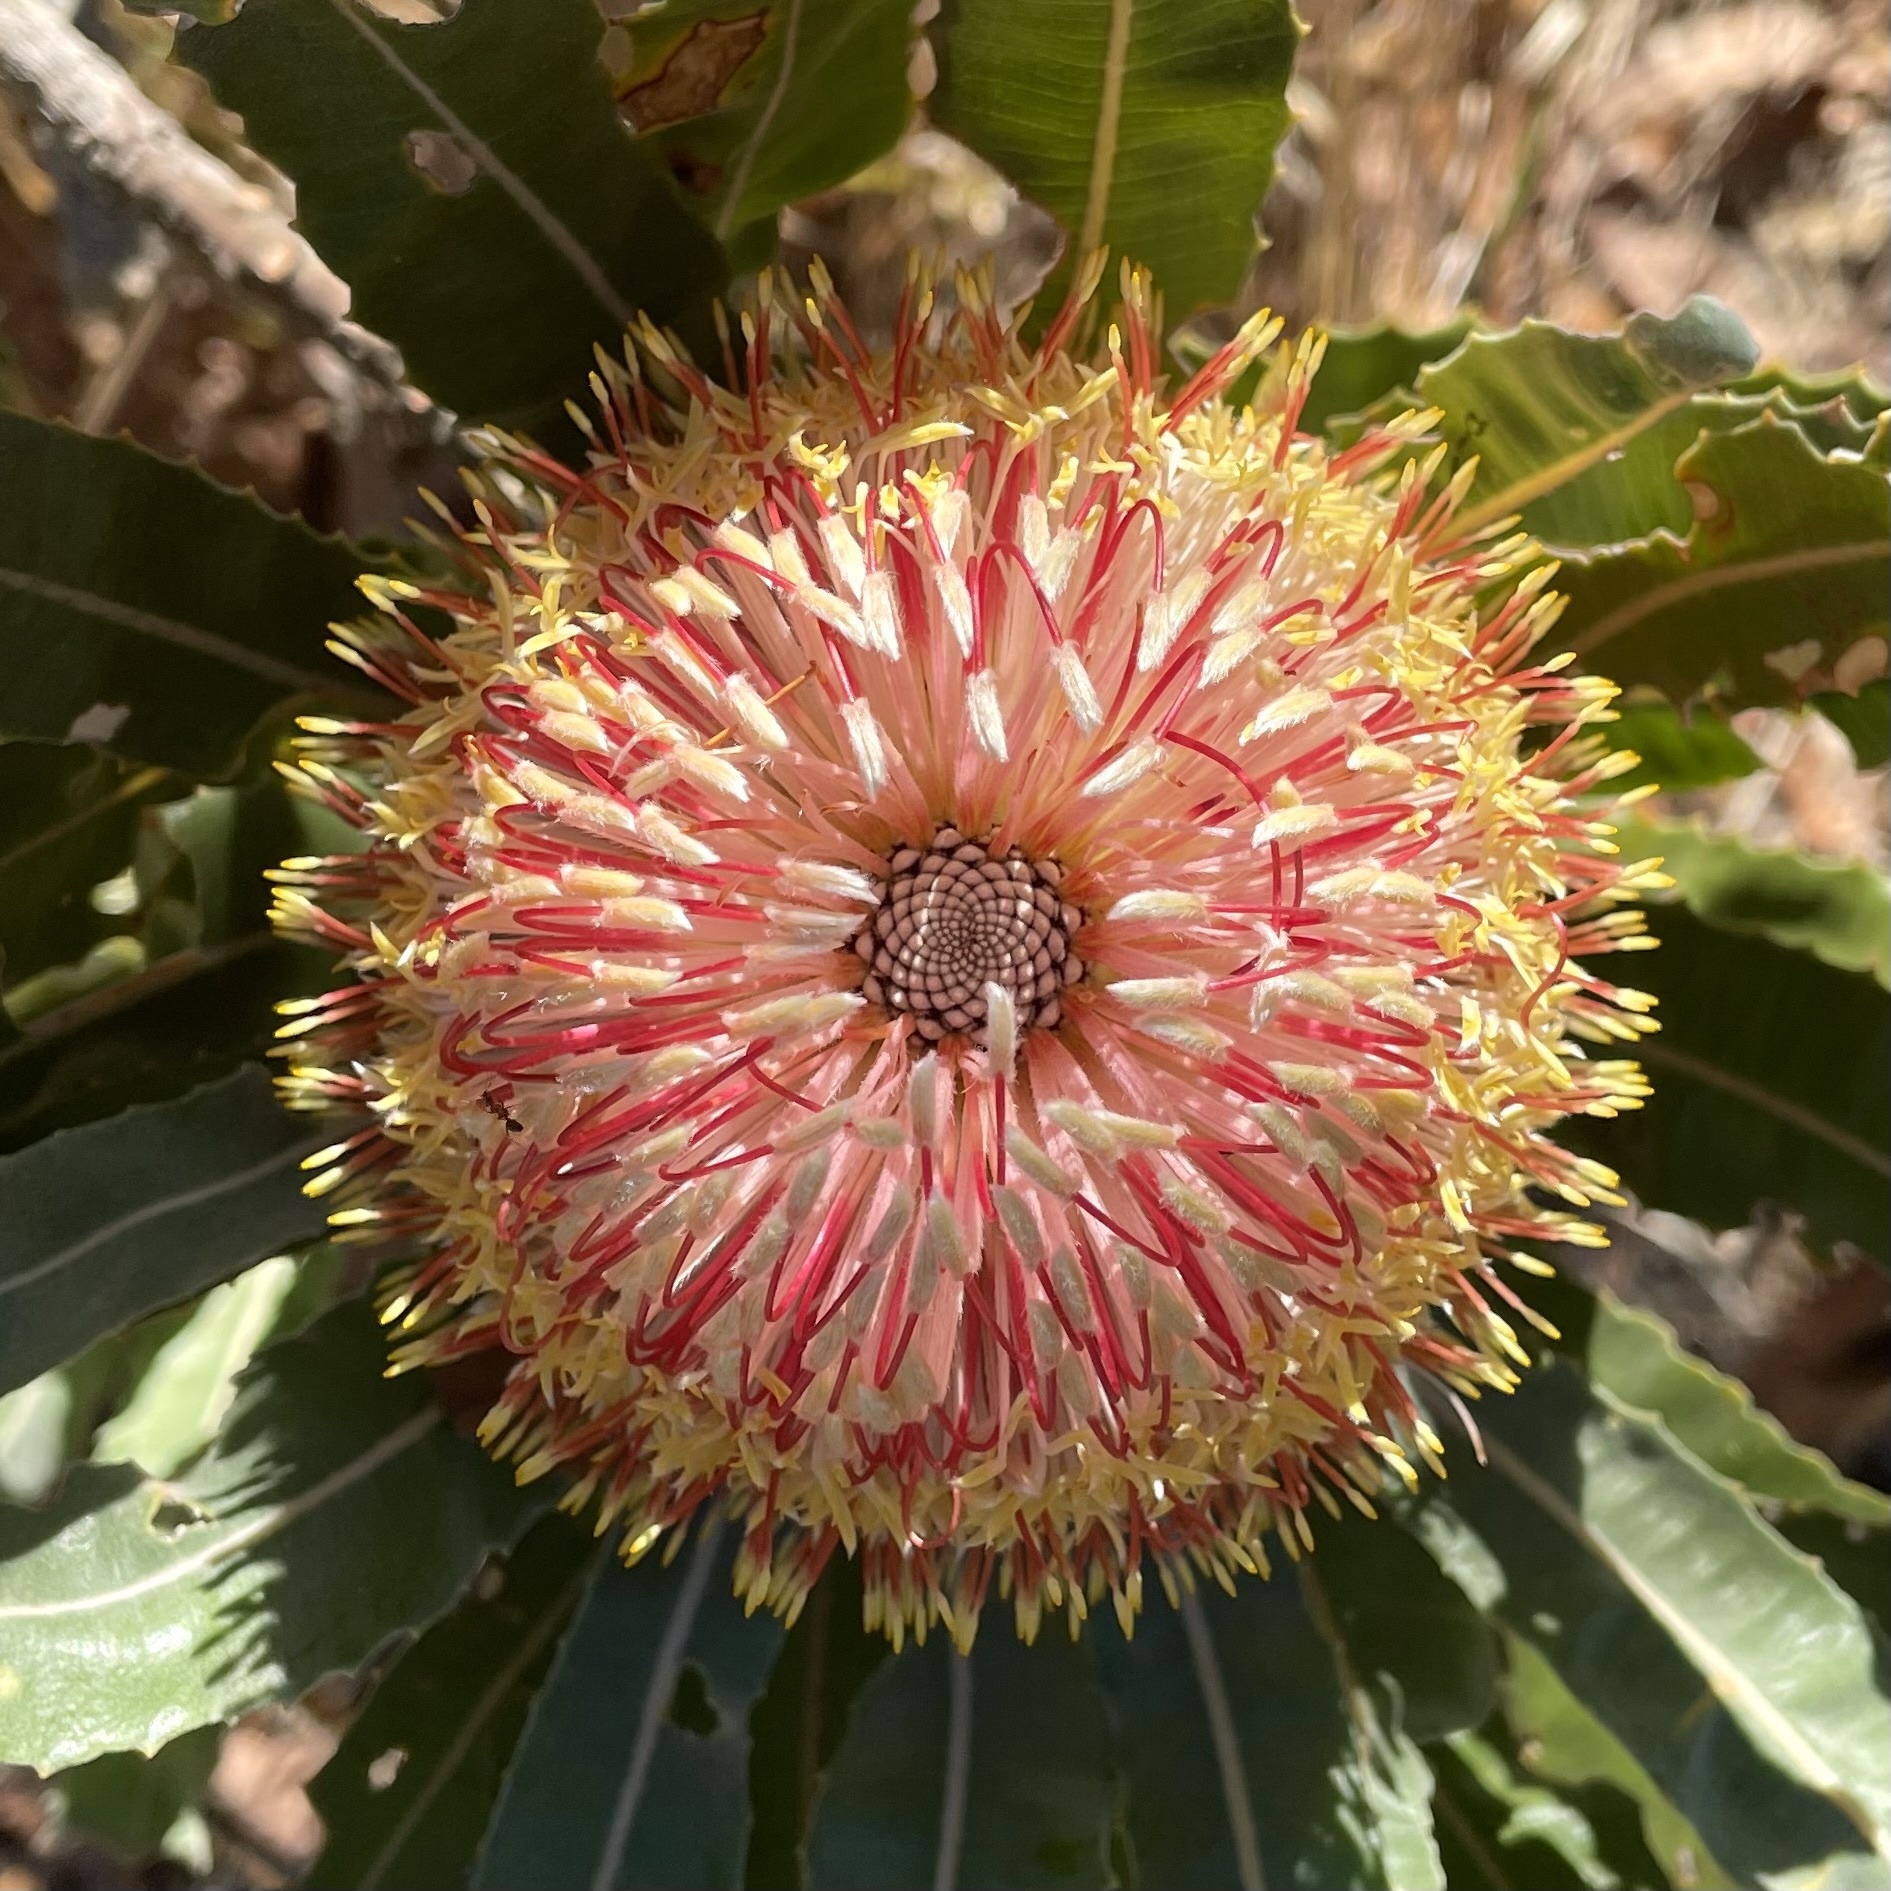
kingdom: Plantae
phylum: Tracheophyta
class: Magnoliopsida
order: Proteales
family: Proteaceae
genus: Banksia
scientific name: Banksia menziesii
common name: Menzie's banksia
